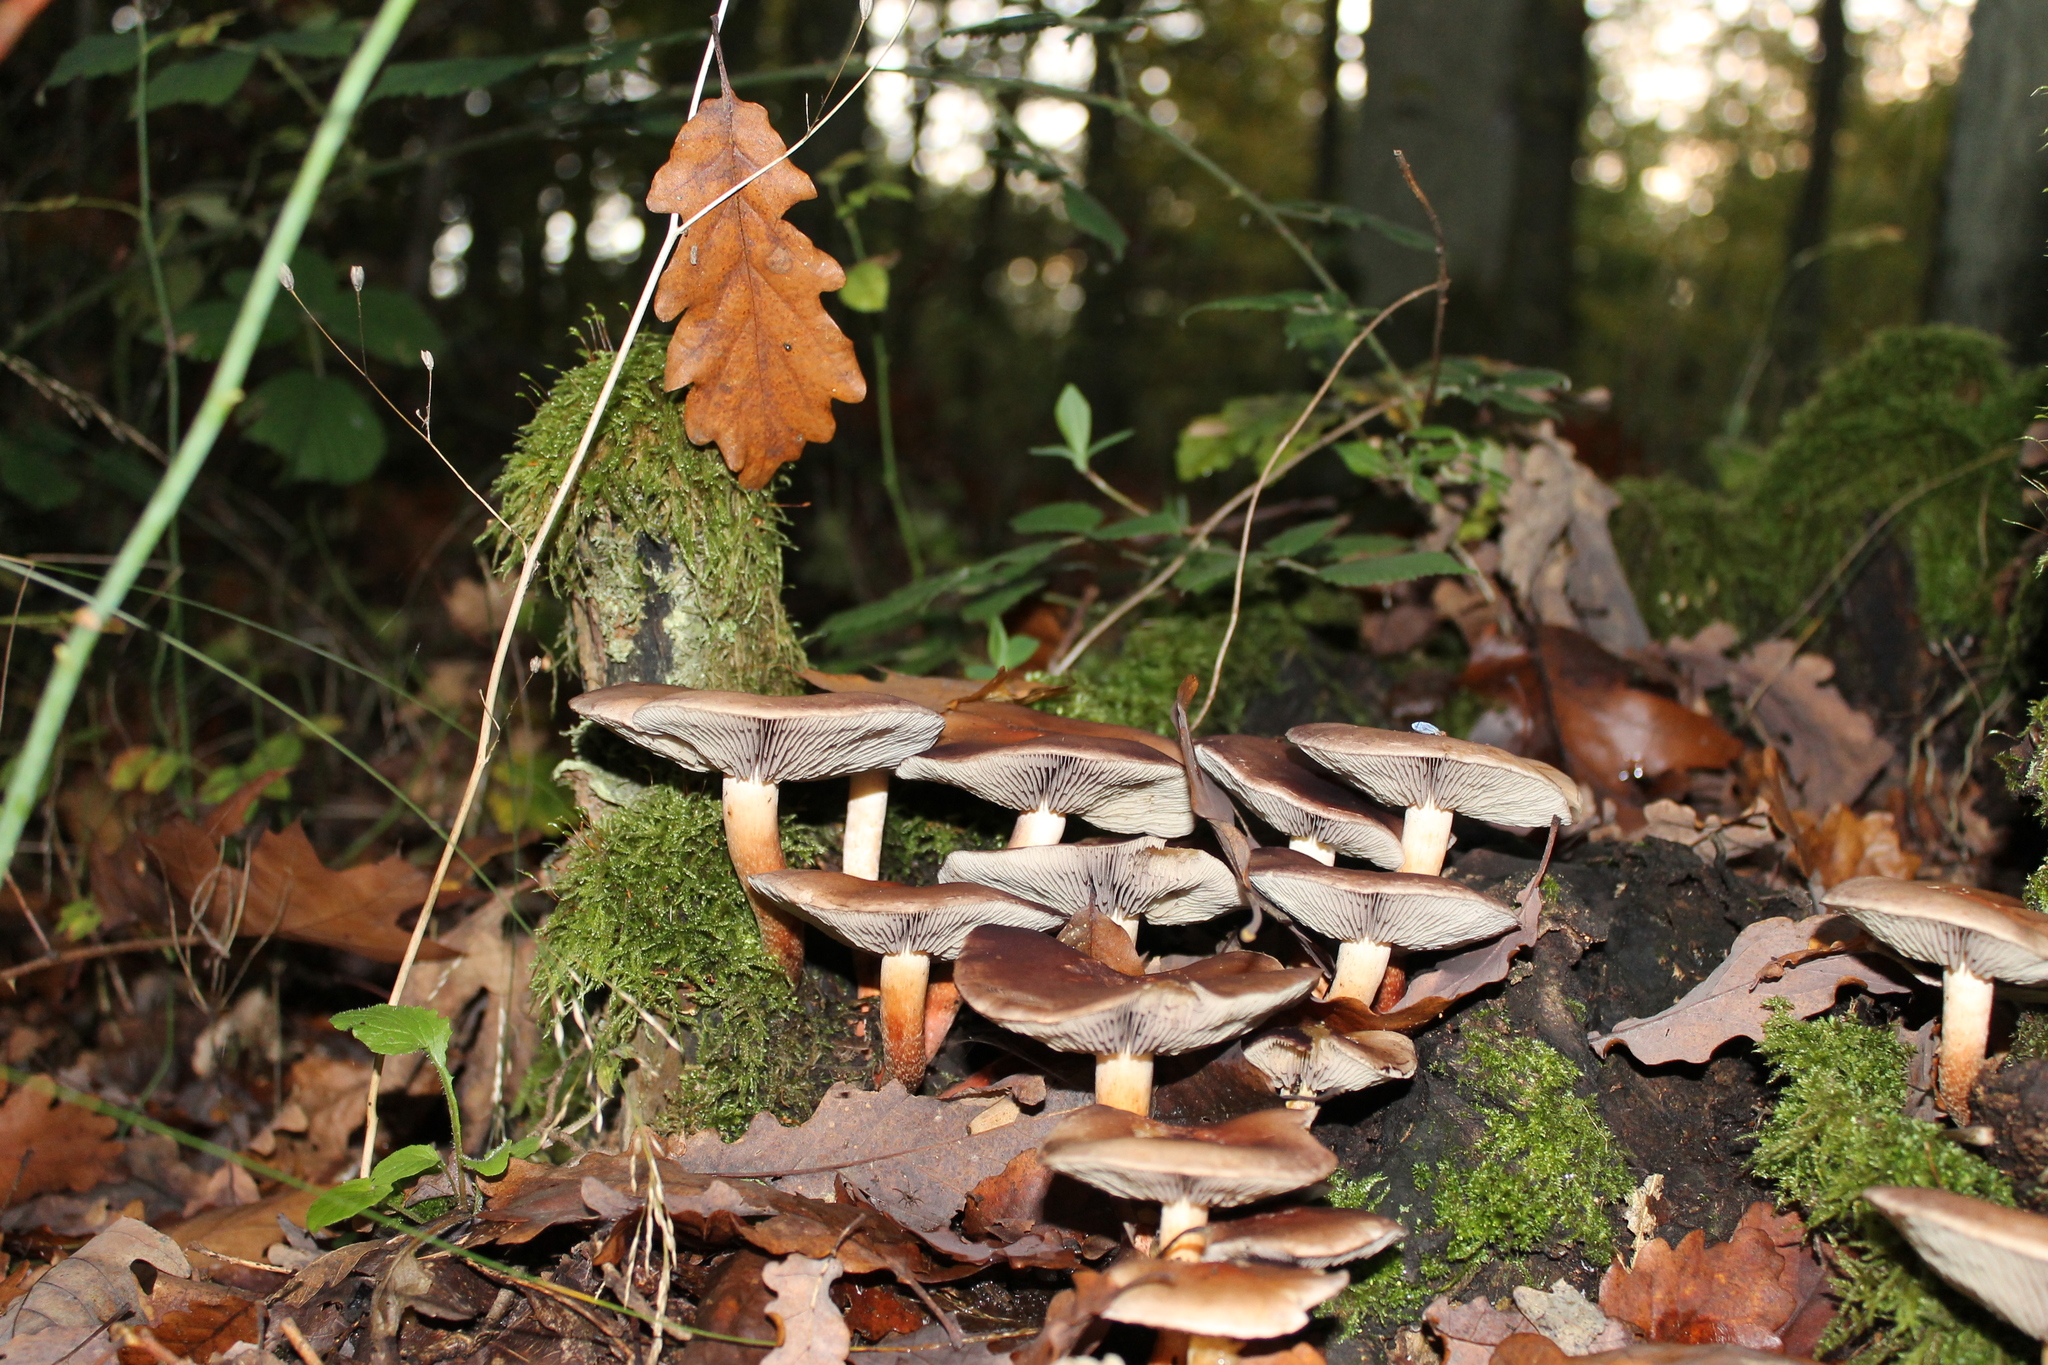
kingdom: Fungi
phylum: Basidiomycota
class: Agaricomycetes
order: Agaricales
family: Strophariaceae
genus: Hypholoma
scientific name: Hypholoma lateritium
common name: Brick caps
